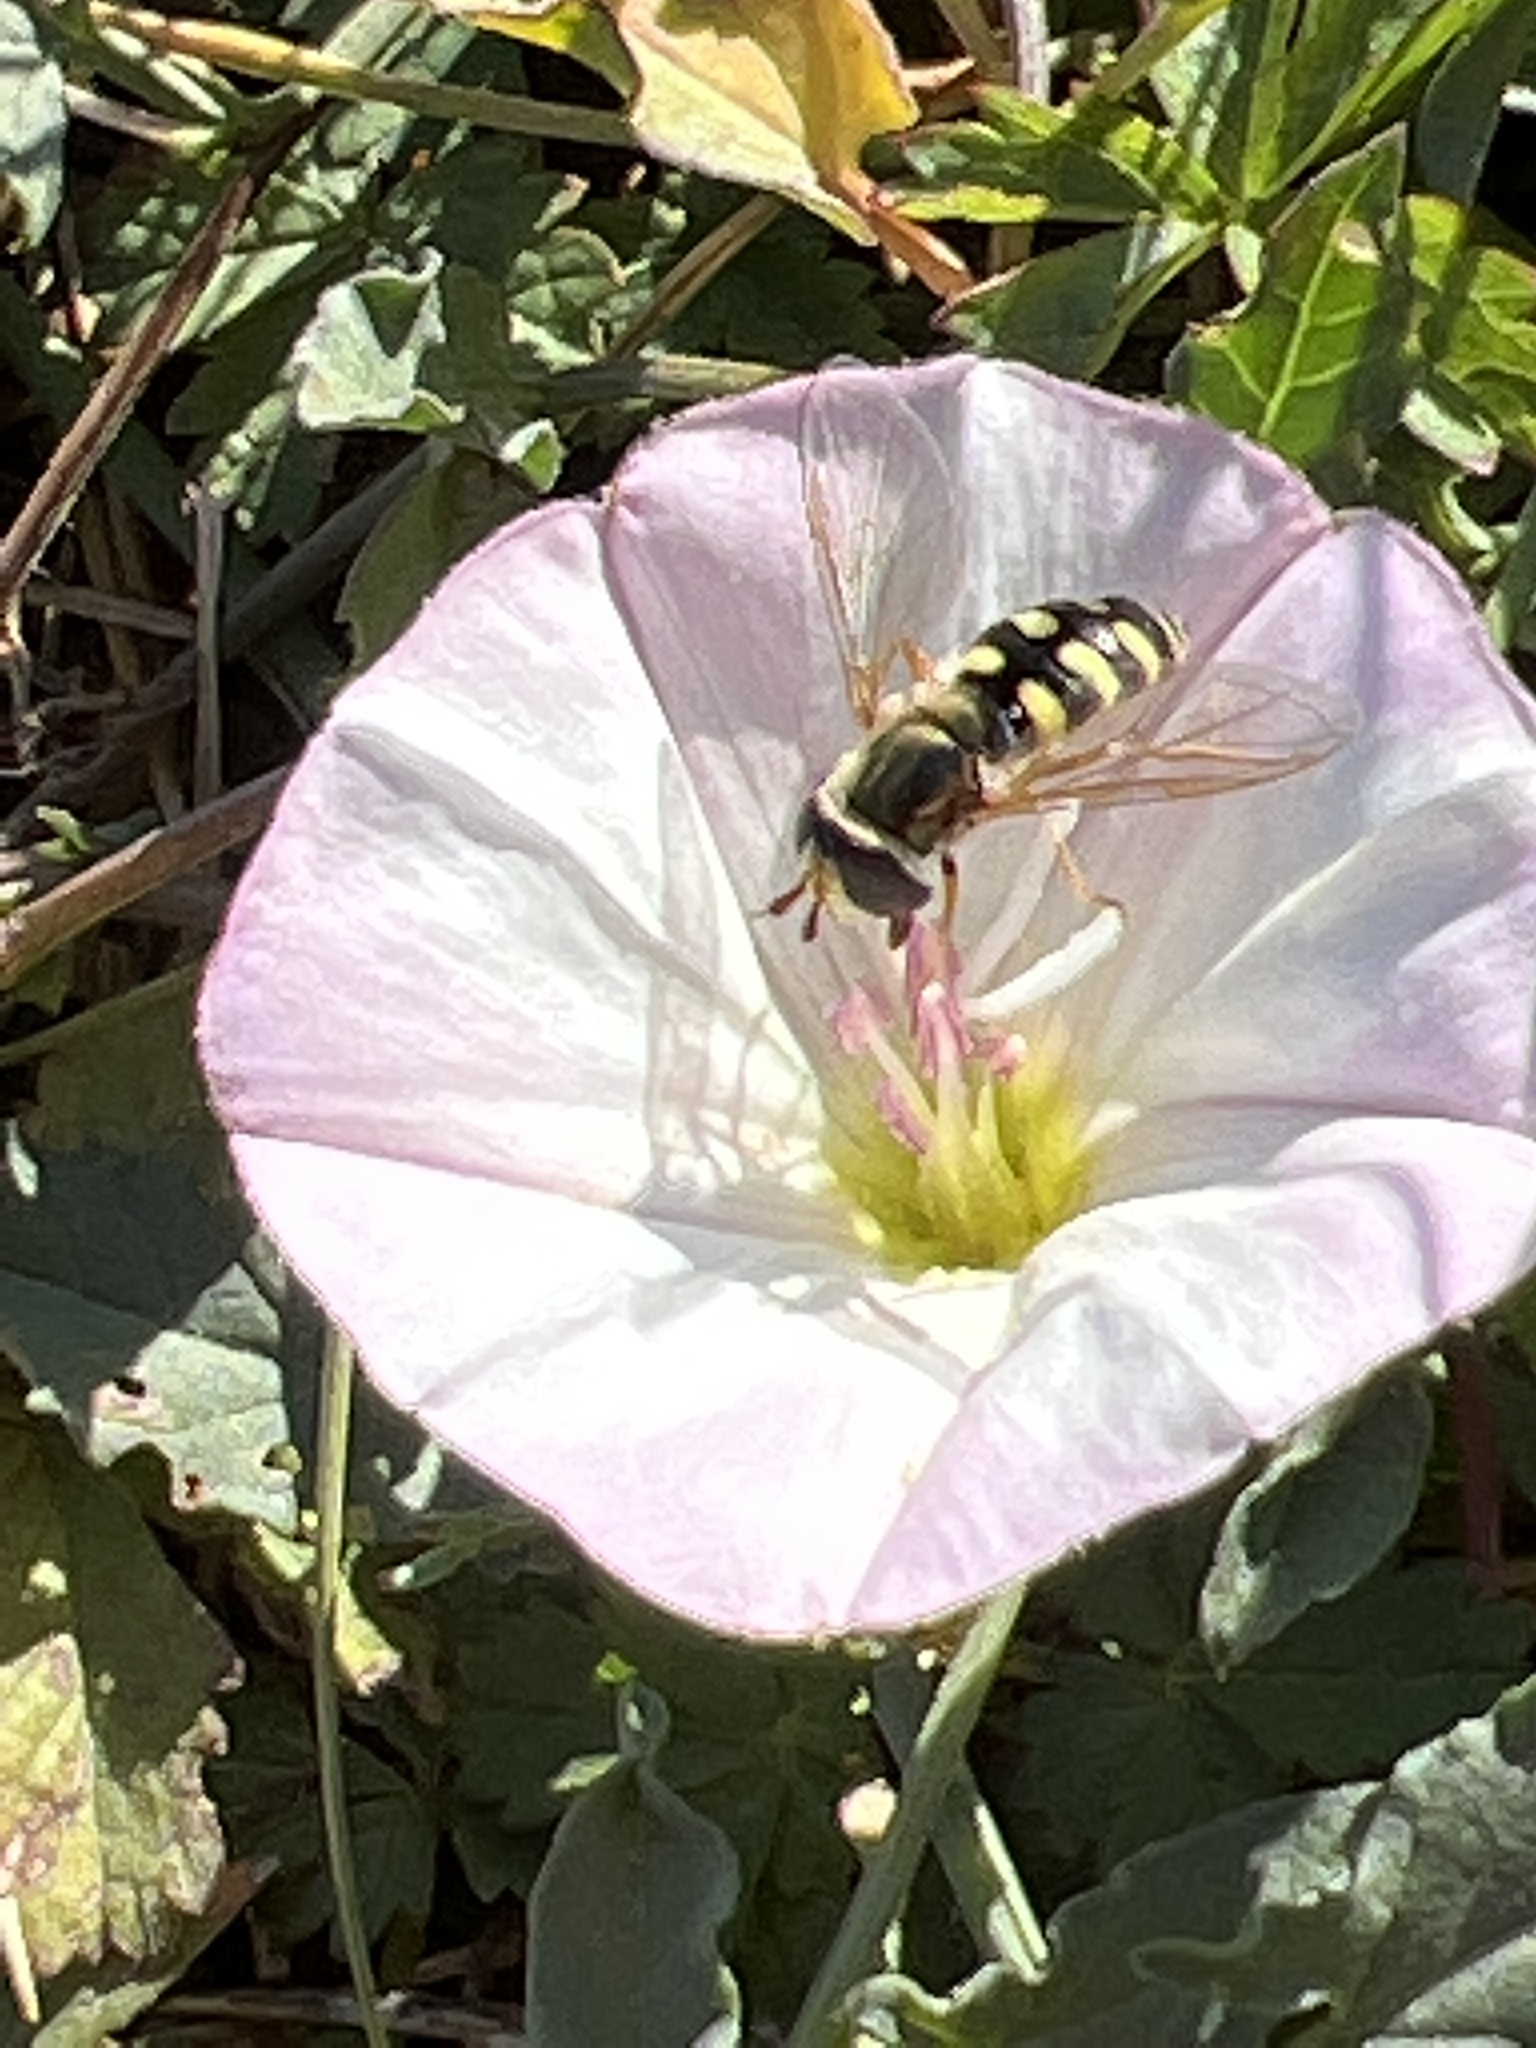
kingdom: Animalia
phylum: Arthropoda
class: Insecta
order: Diptera
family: Syrphidae
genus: Eupeodes
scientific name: Eupeodes corollae
